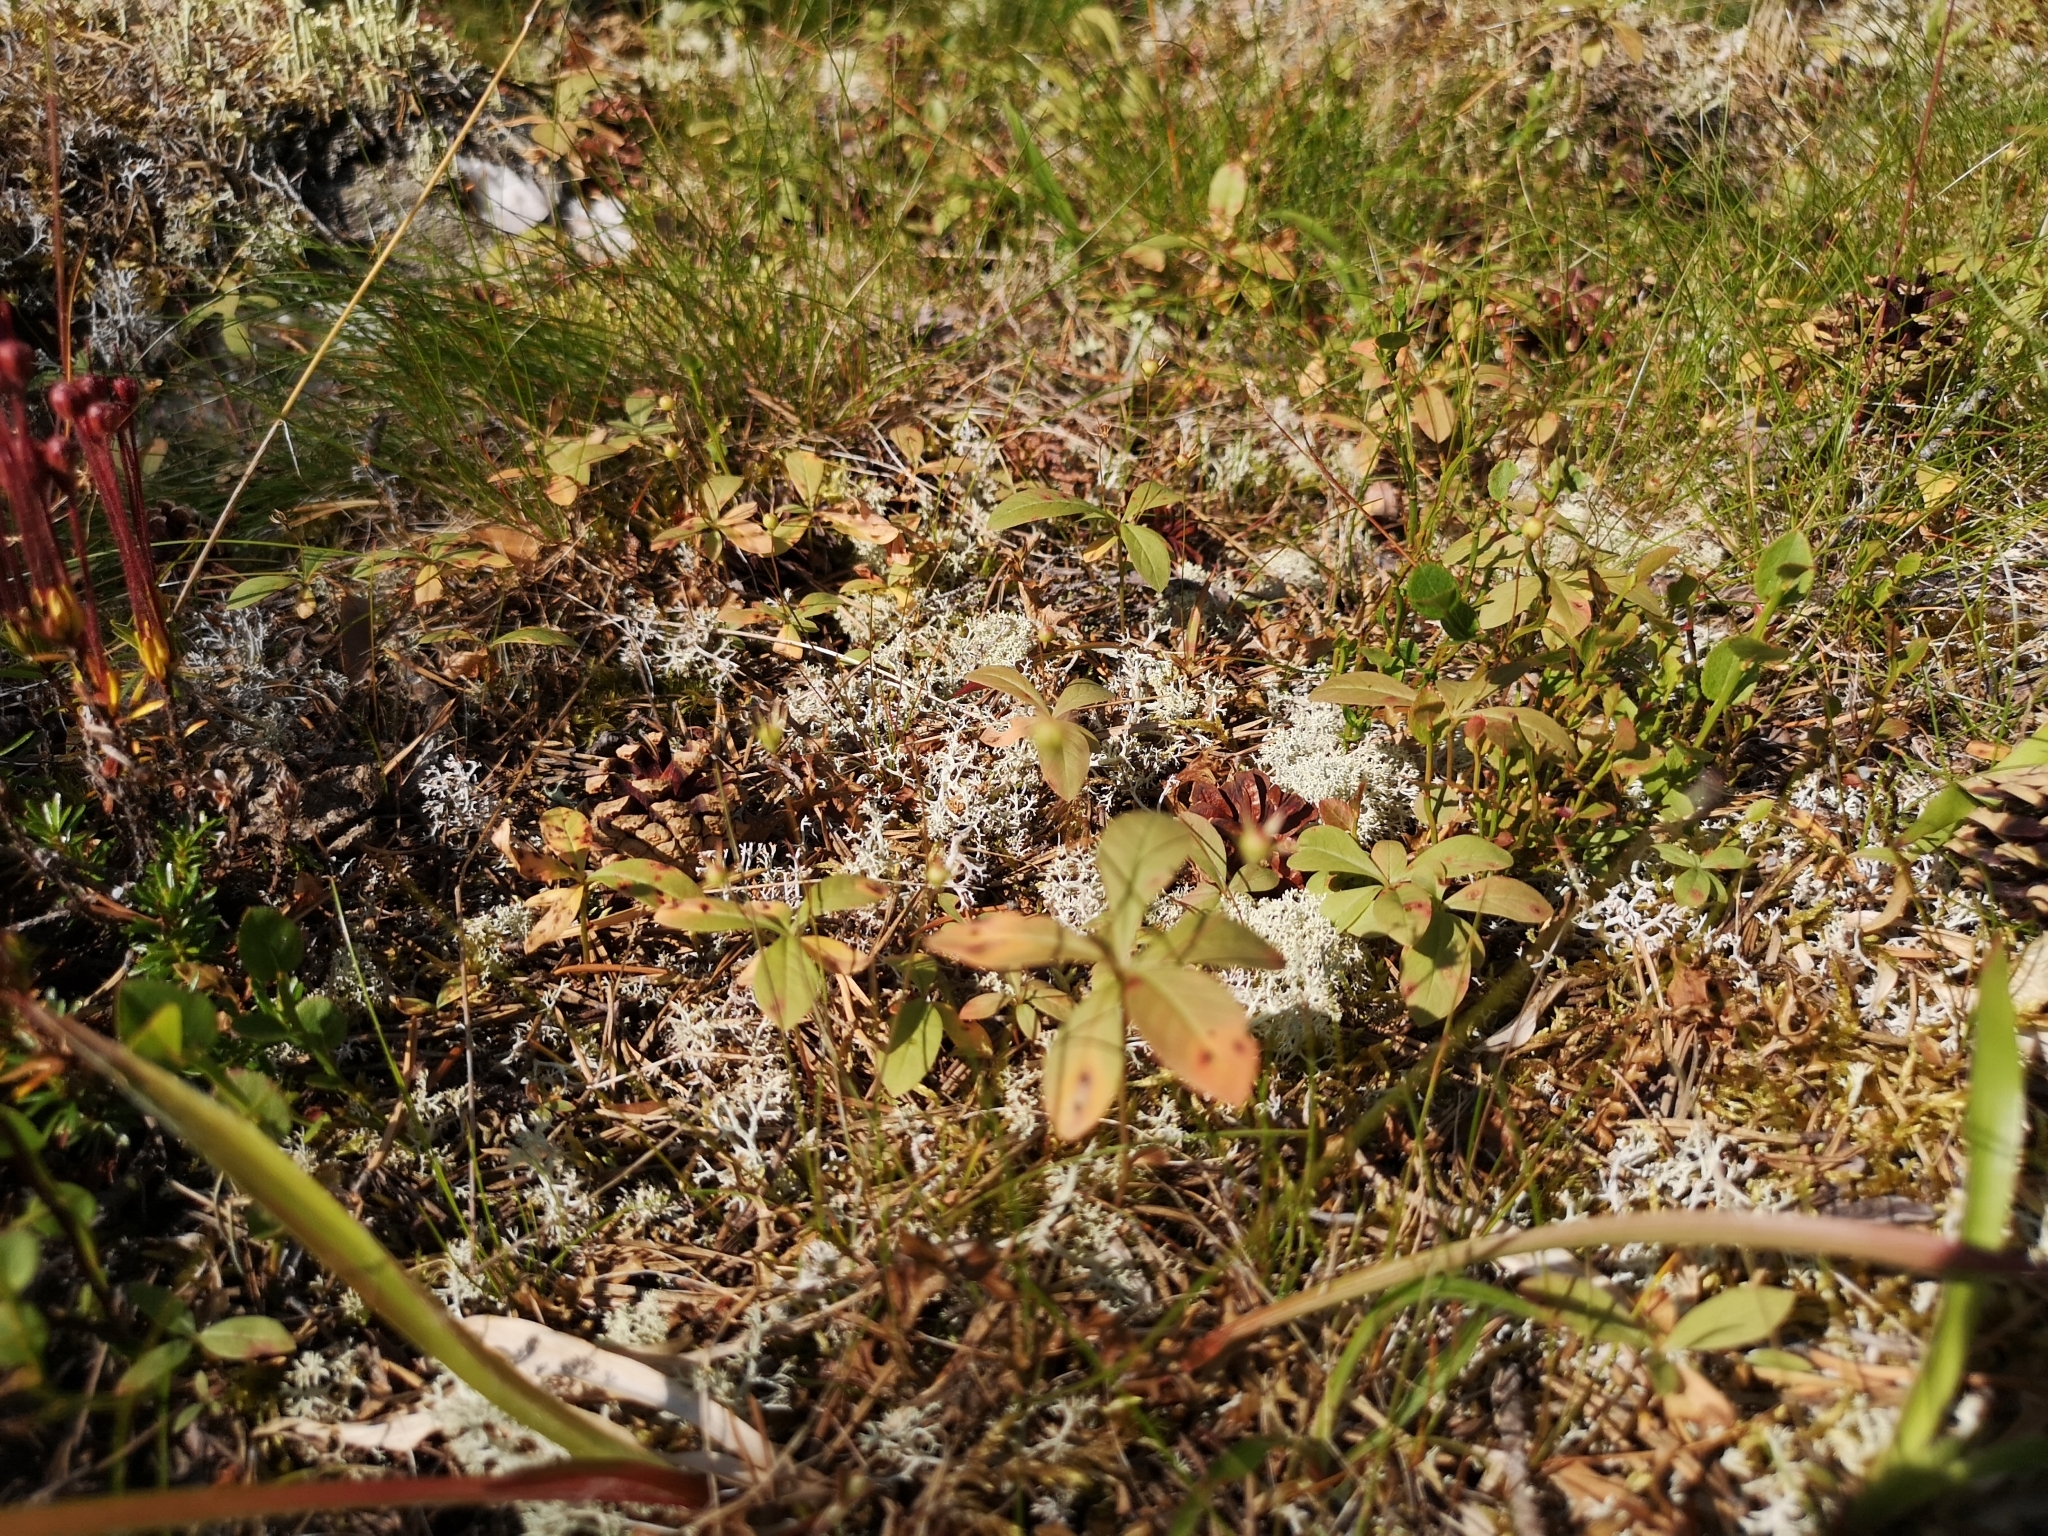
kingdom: Plantae
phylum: Tracheophyta
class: Magnoliopsida
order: Ericales
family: Primulaceae
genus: Lysimachia
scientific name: Lysimachia europaea
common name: Arctic starflower
